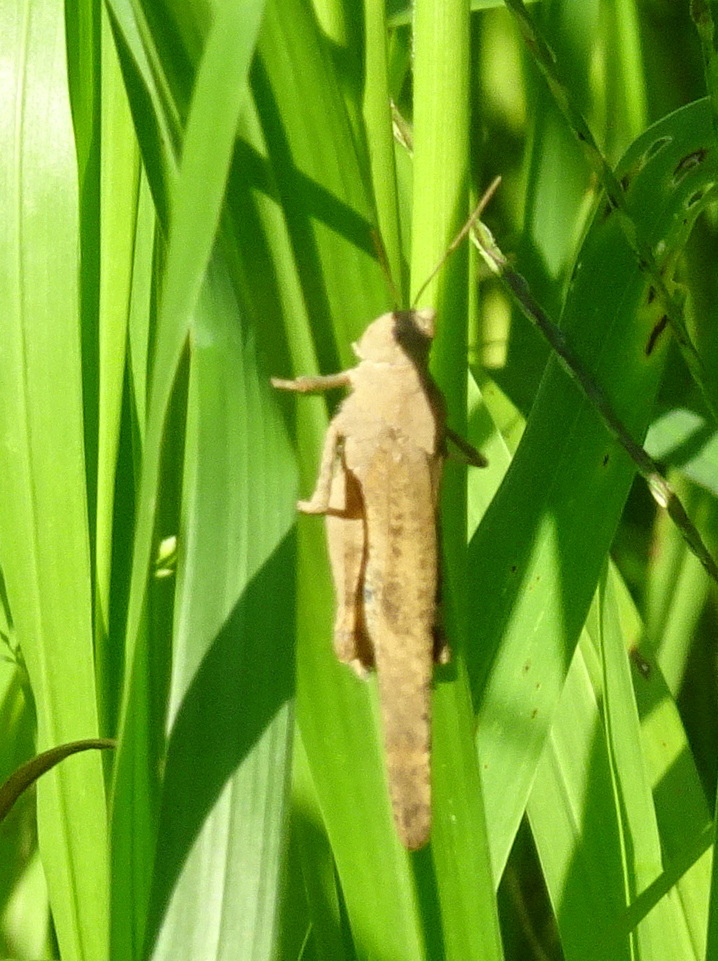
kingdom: Animalia
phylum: Arthropoda
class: Insecta
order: Orthoptera
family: Acrididae
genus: Dissosteira
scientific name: Dissosteira carolina
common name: Carolina grasshopper
